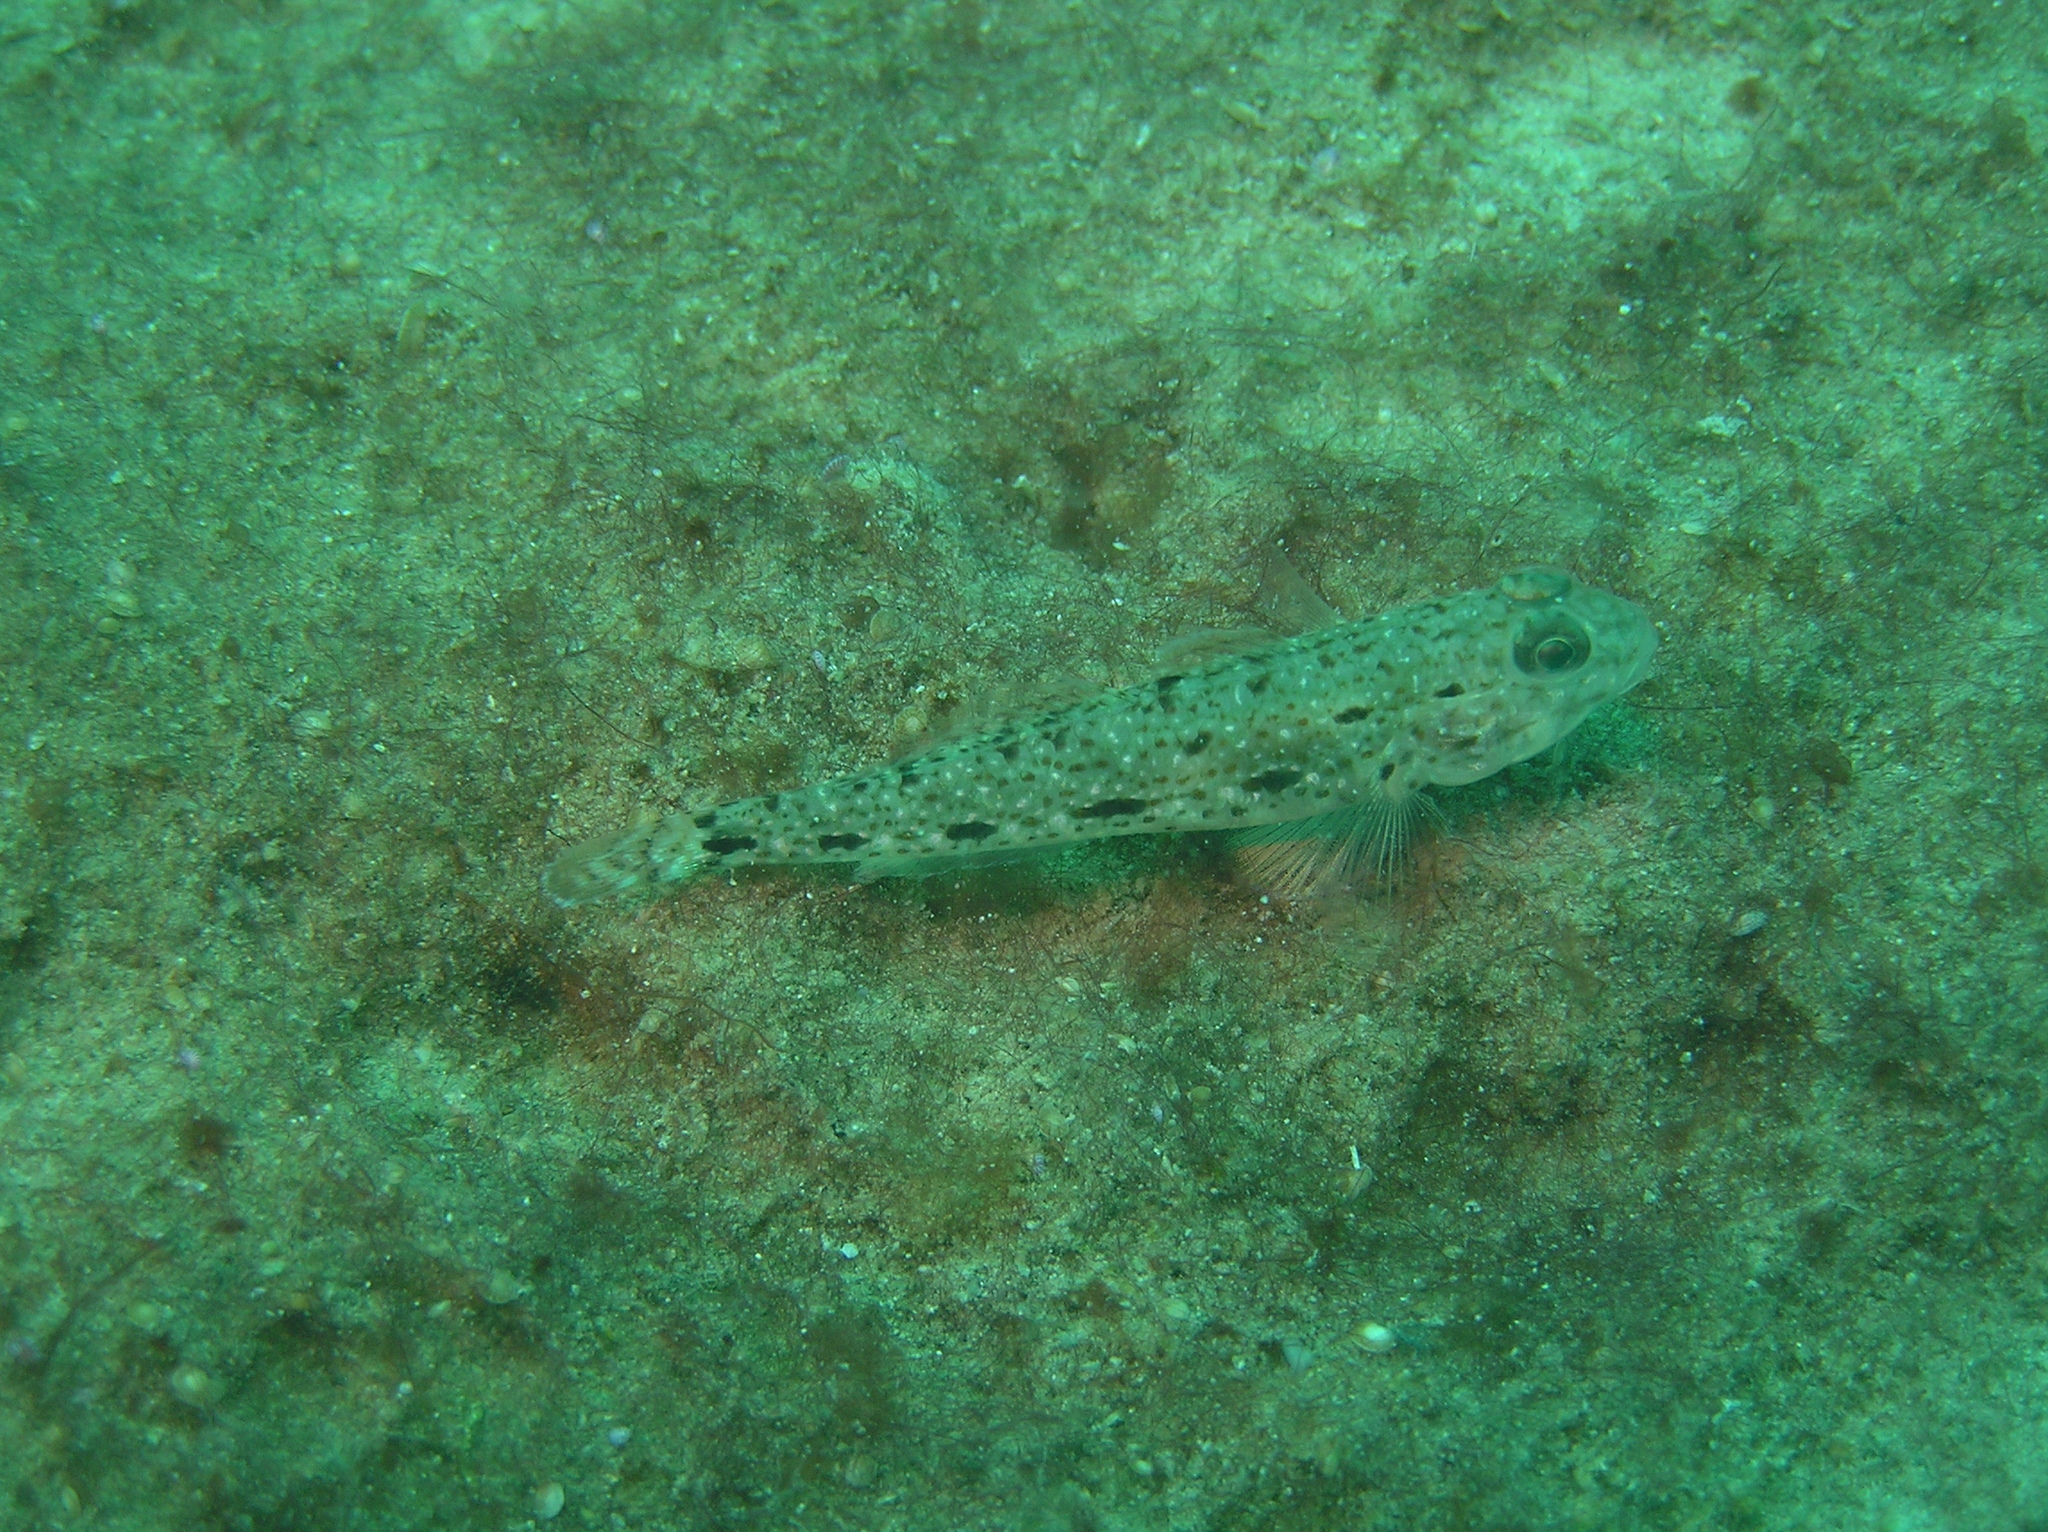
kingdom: Animalia
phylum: Chordata
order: Perciformes
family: Gobiidae
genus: Oplopomus
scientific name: Oplopomus caninoides
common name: Robust goby
